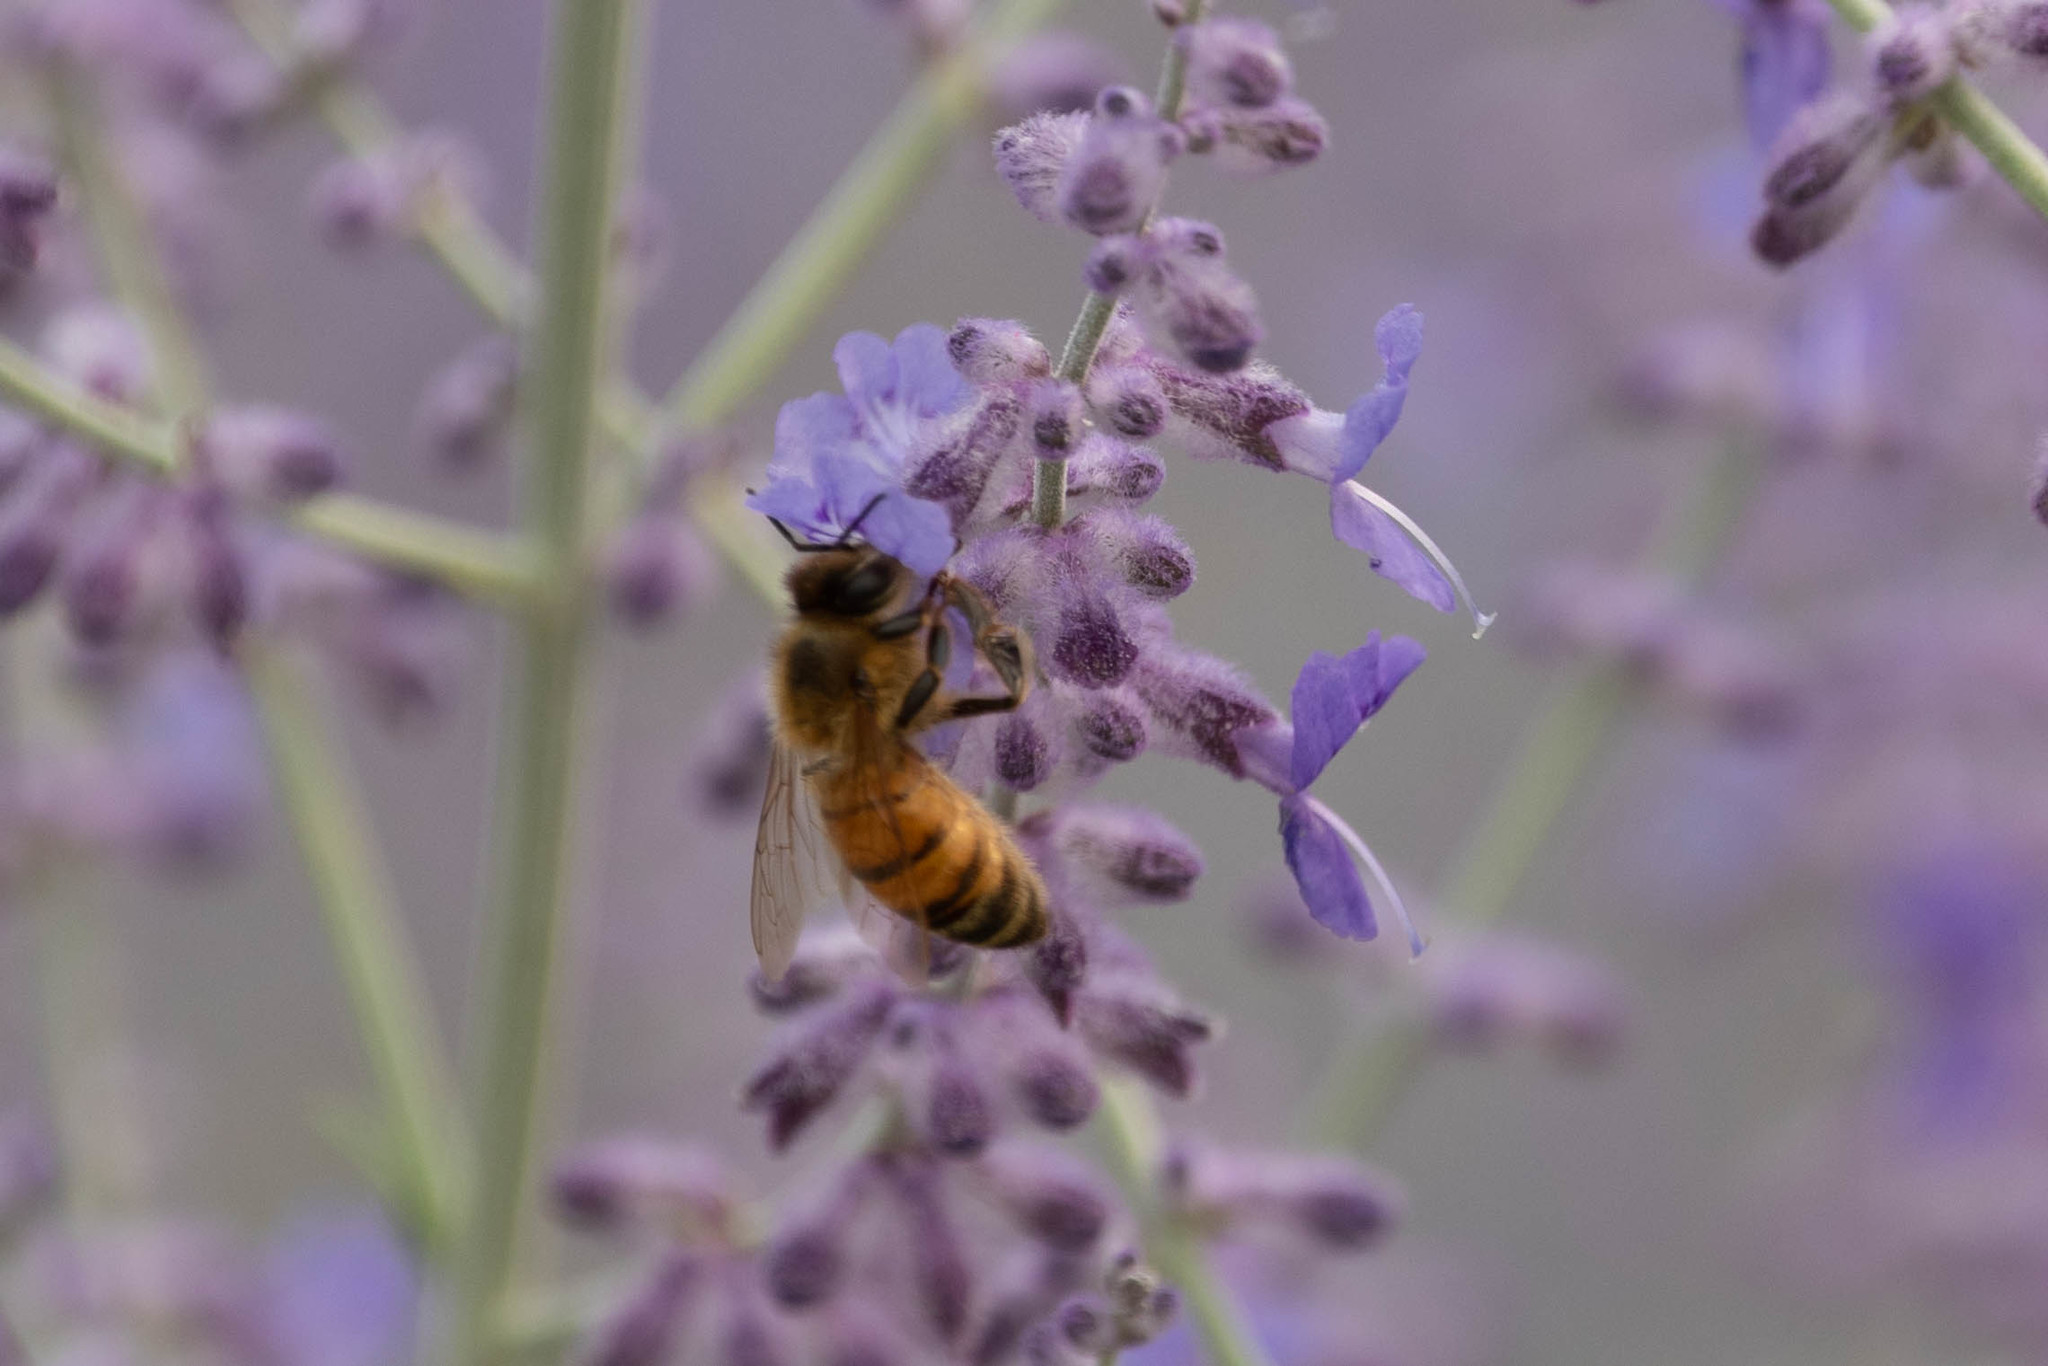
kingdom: Animalia
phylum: Arthropoda
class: Insecta
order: Hymenoptera
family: Apidae
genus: Apis
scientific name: Apis mellifera
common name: Honey bee
